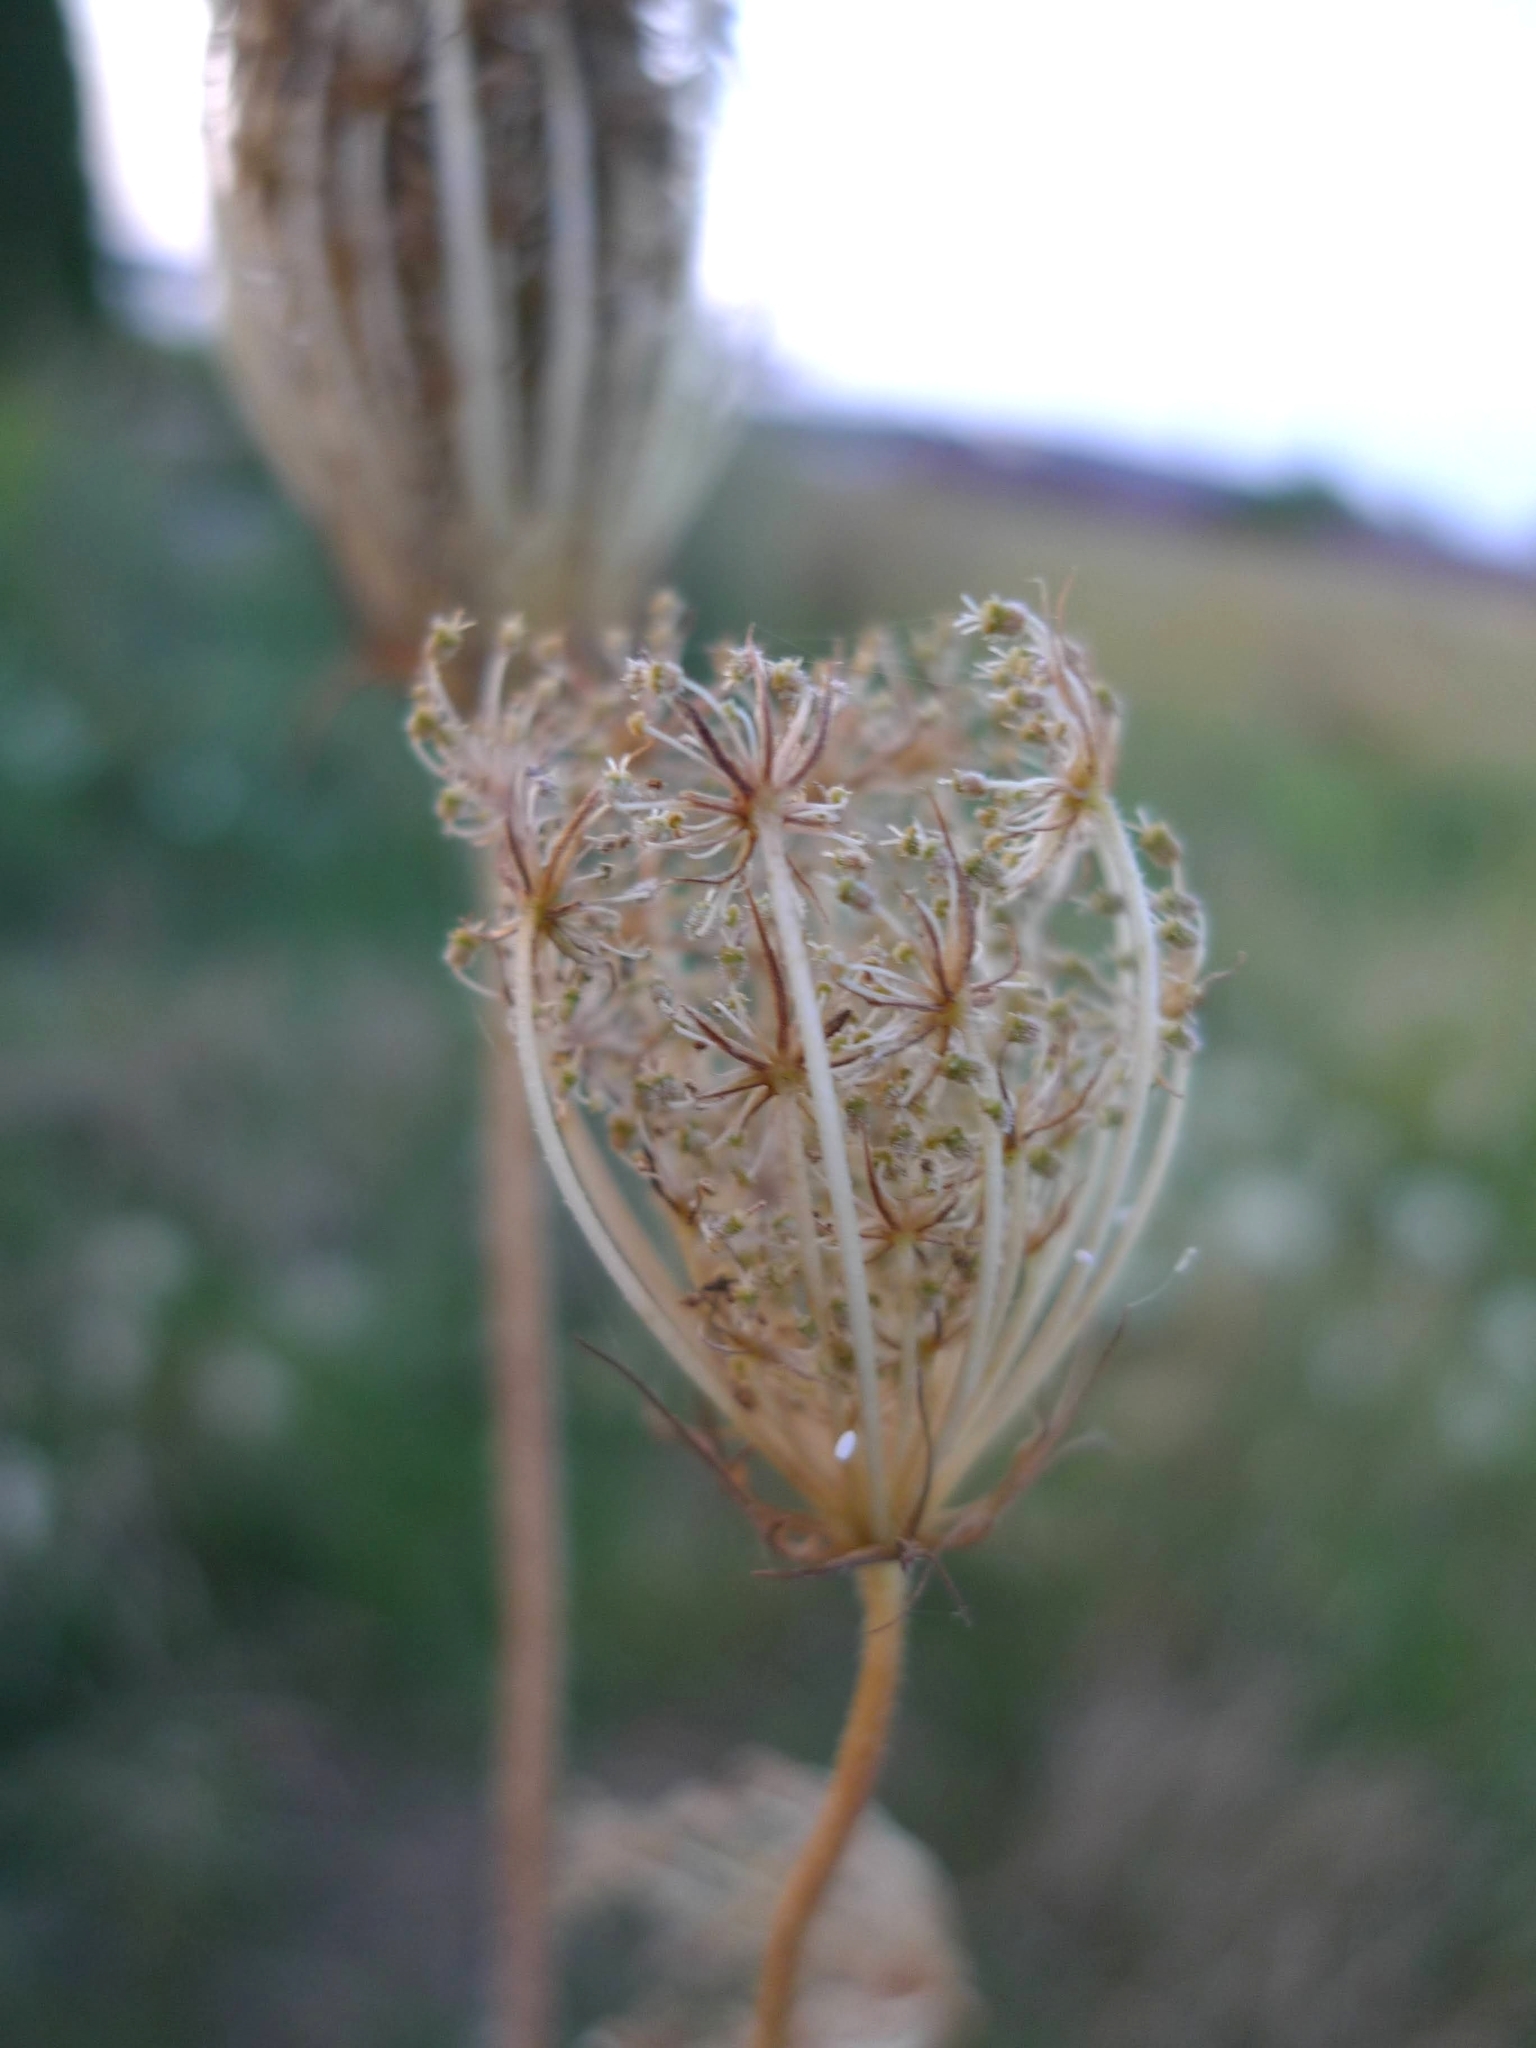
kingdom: Plantae
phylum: Tracheophyta
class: Magnoliopsida
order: Apiales
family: Apiaceae
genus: Daucus
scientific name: Daucus carota
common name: Wild carrot
